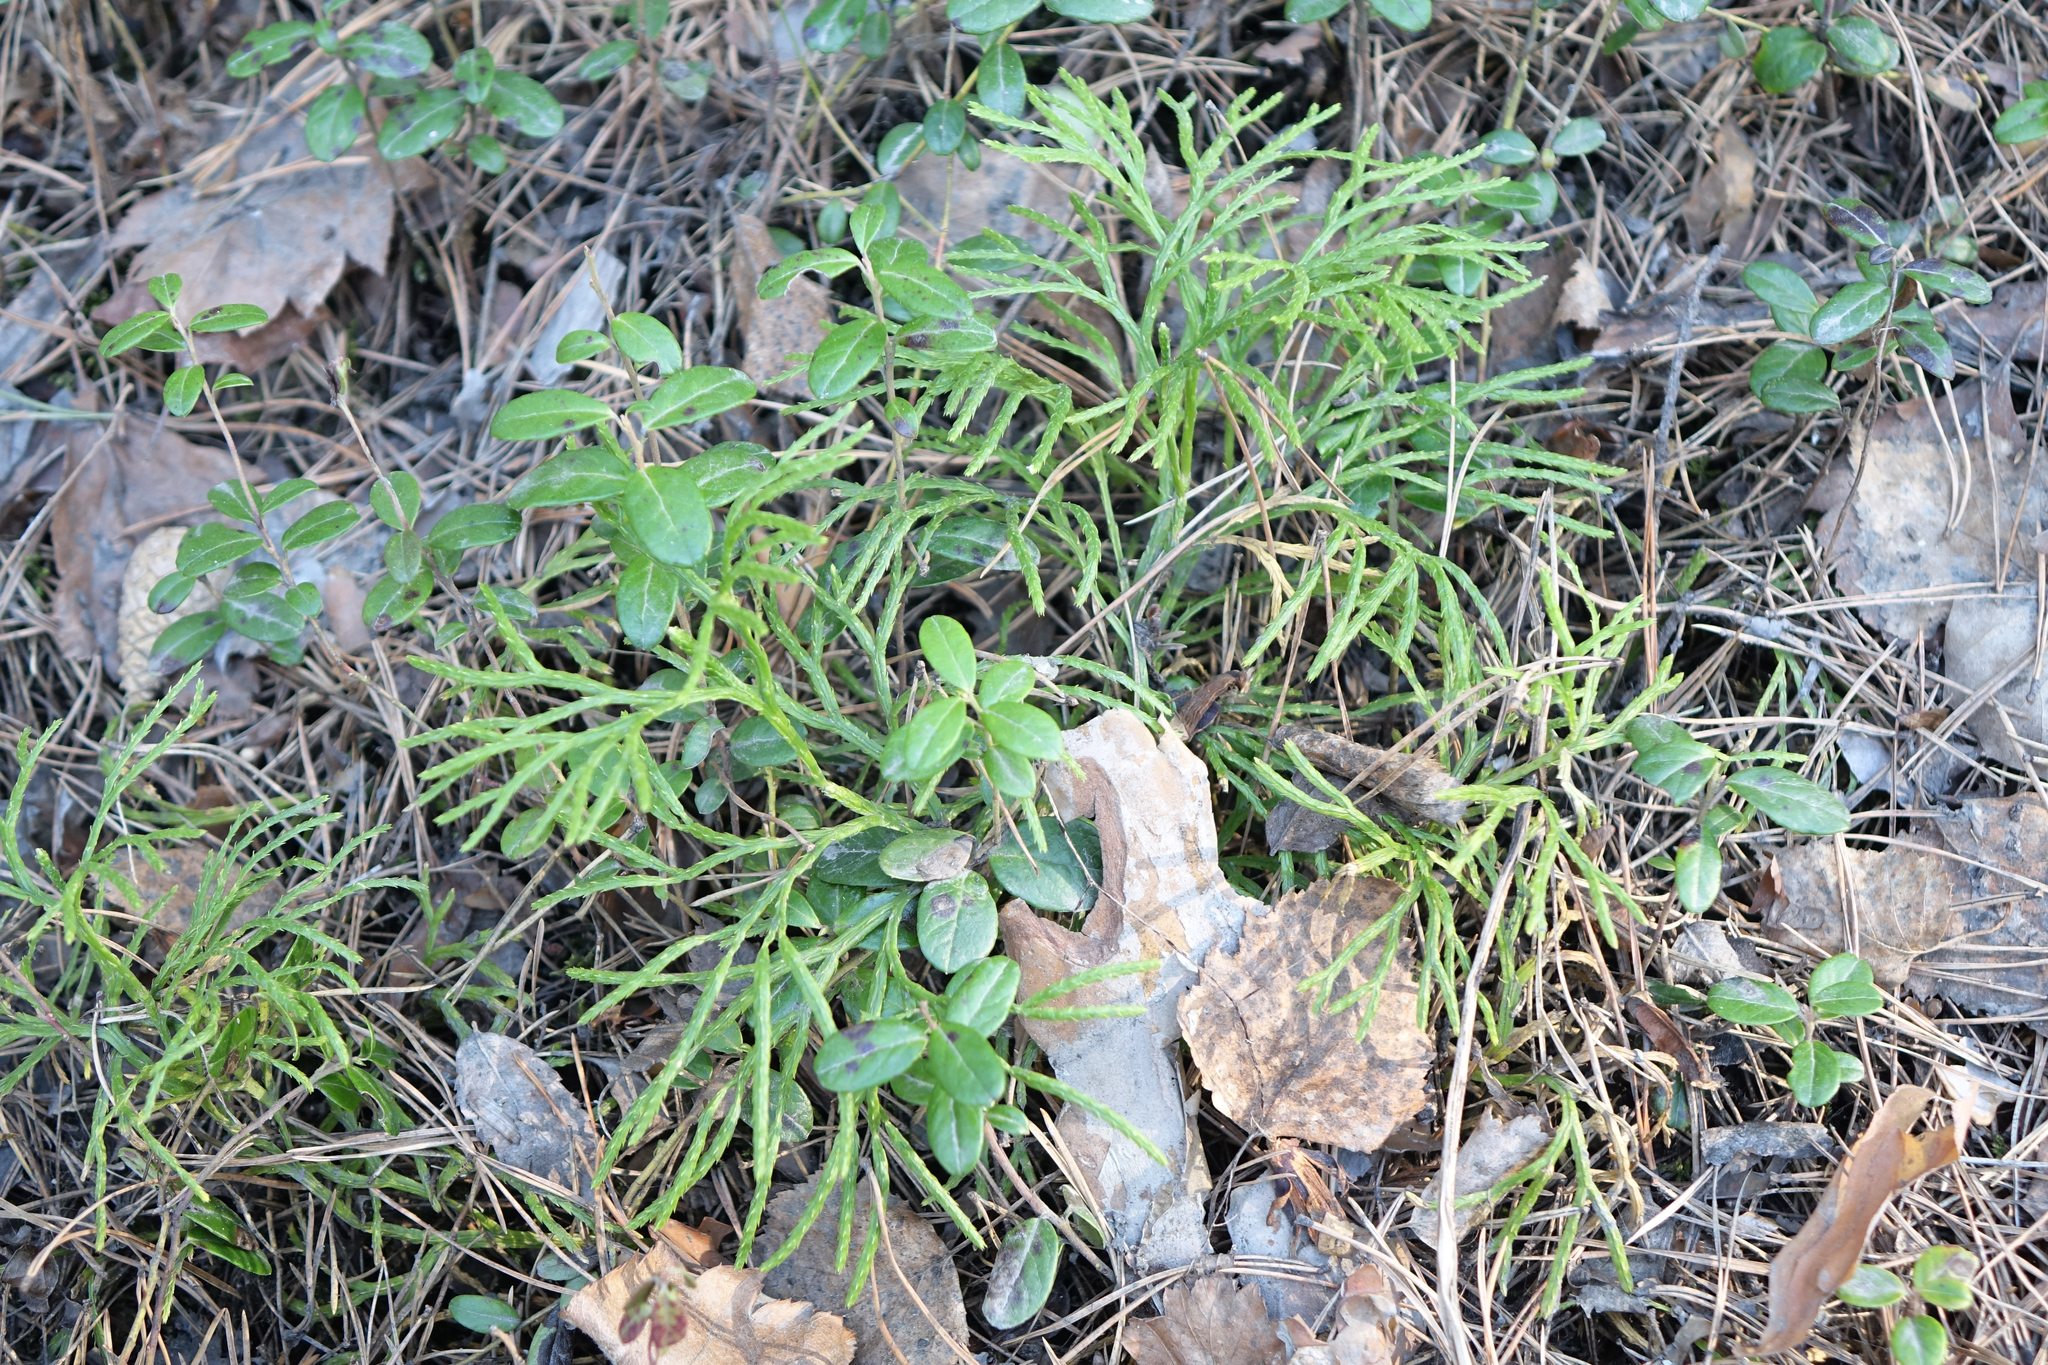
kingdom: Plantae
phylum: Tracheophyta
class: Lycopodiopsida
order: Lycopodiales
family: Lycopodiaceae
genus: Diphasiastrum
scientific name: Diphasiastrum complanatum
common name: Northern running-pine
